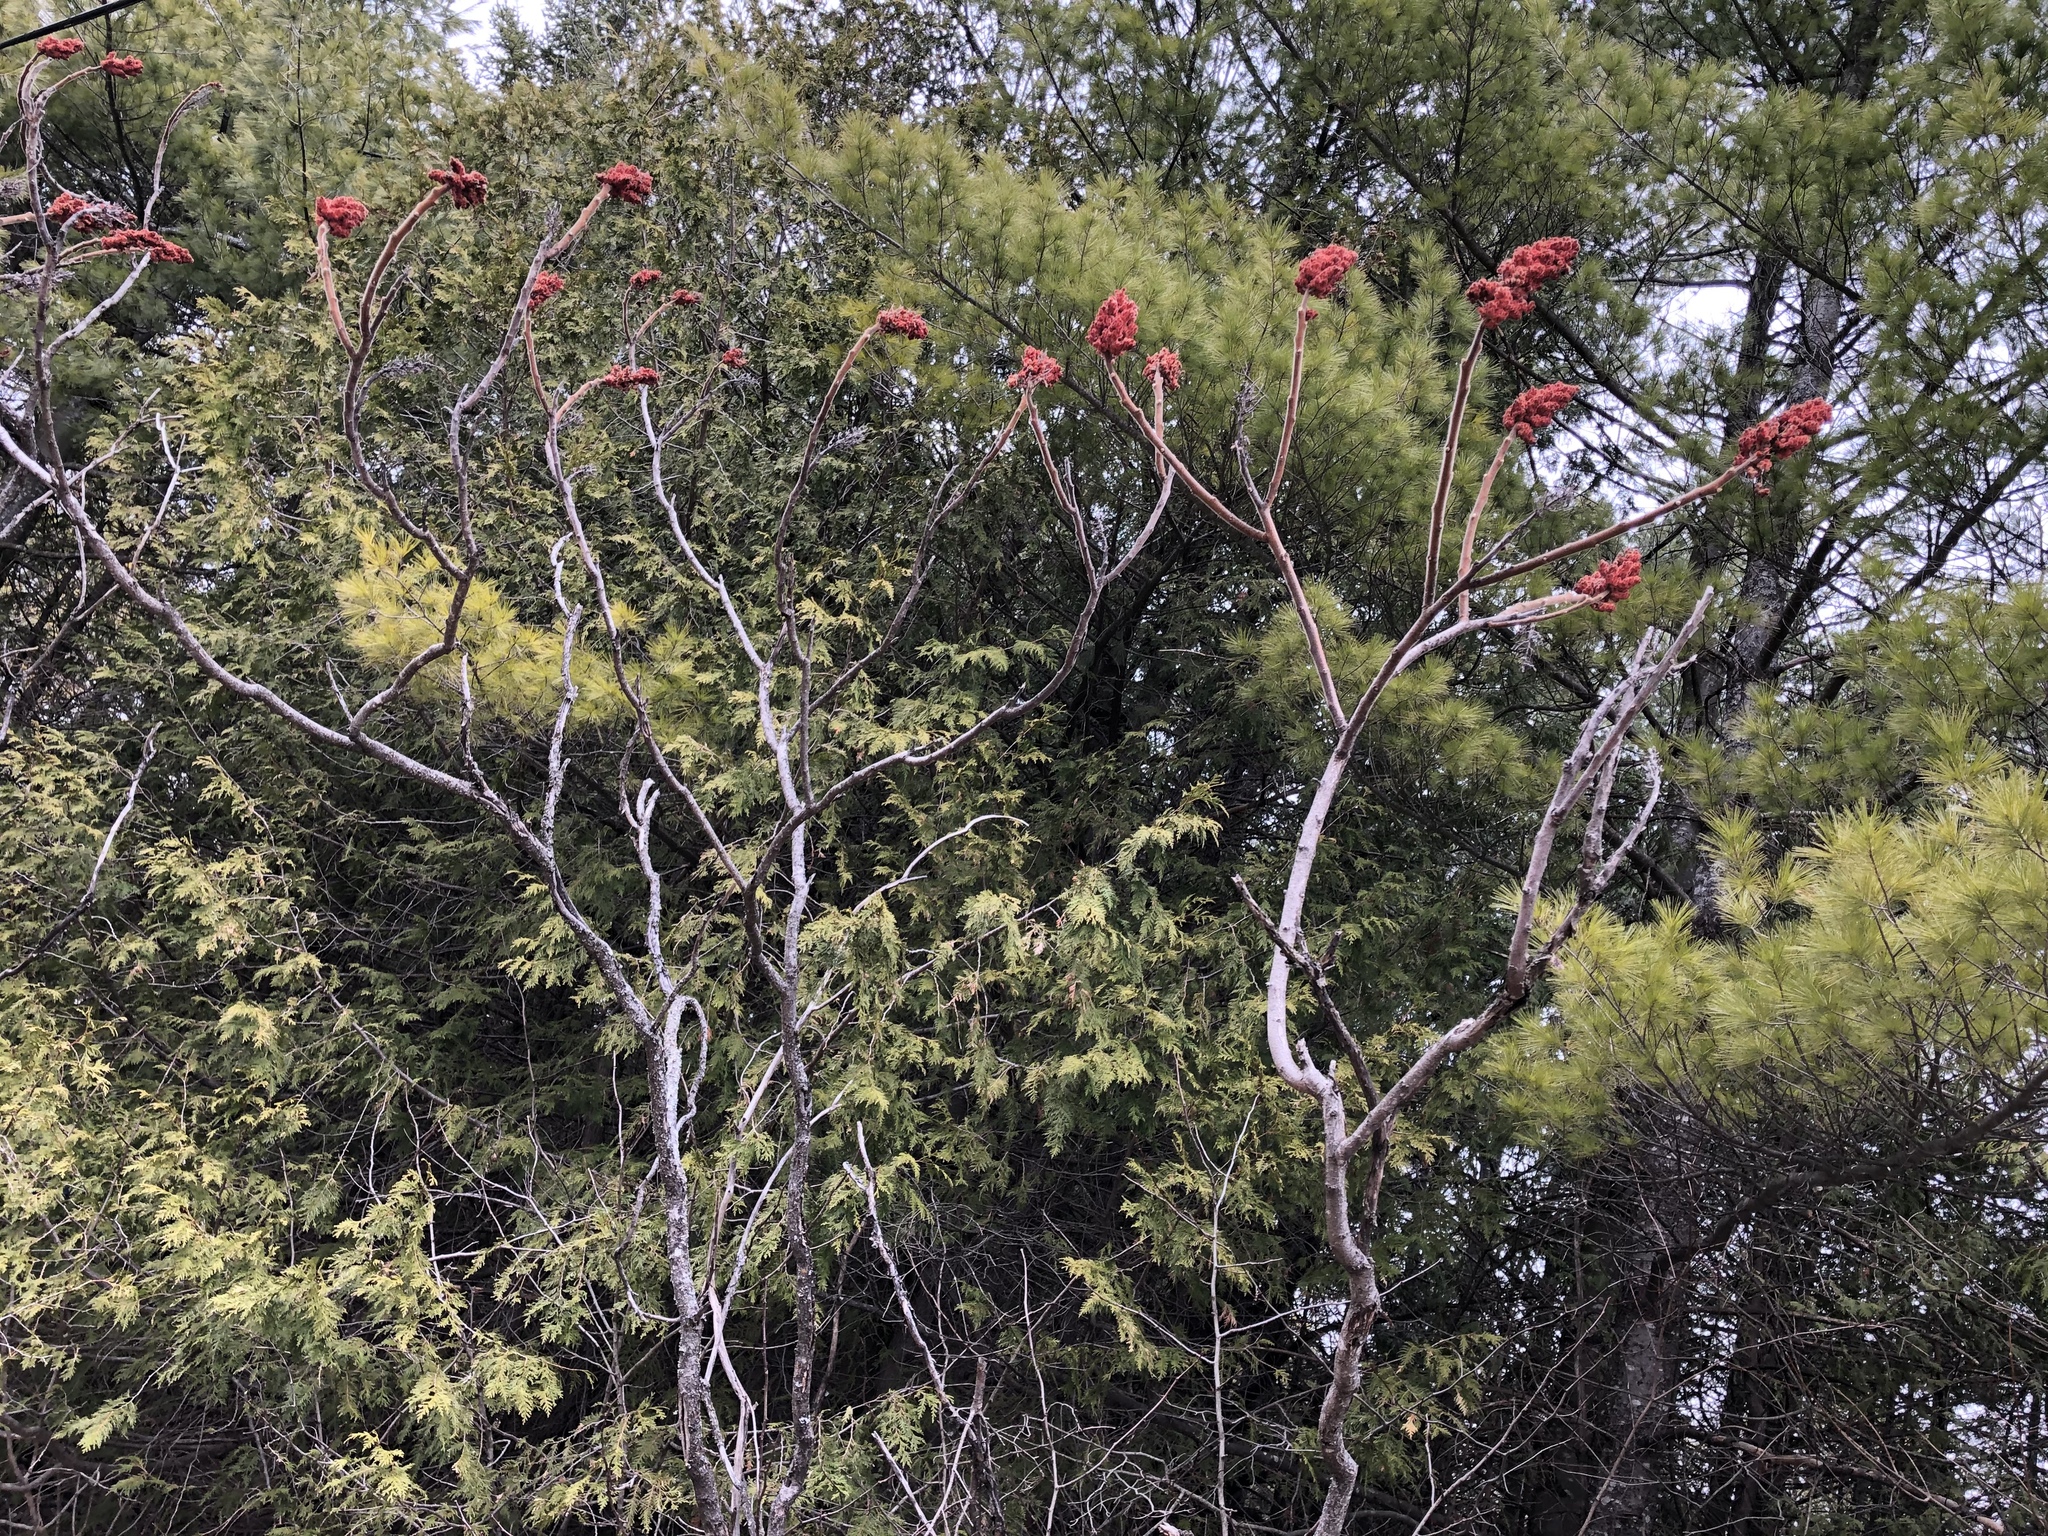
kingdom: Plantae
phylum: Tracheophyta
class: Magnoliopsida
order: Sapindales
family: Anacardiaceae
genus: Rhus
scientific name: Rhus typhina
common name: Staghorn sumac
